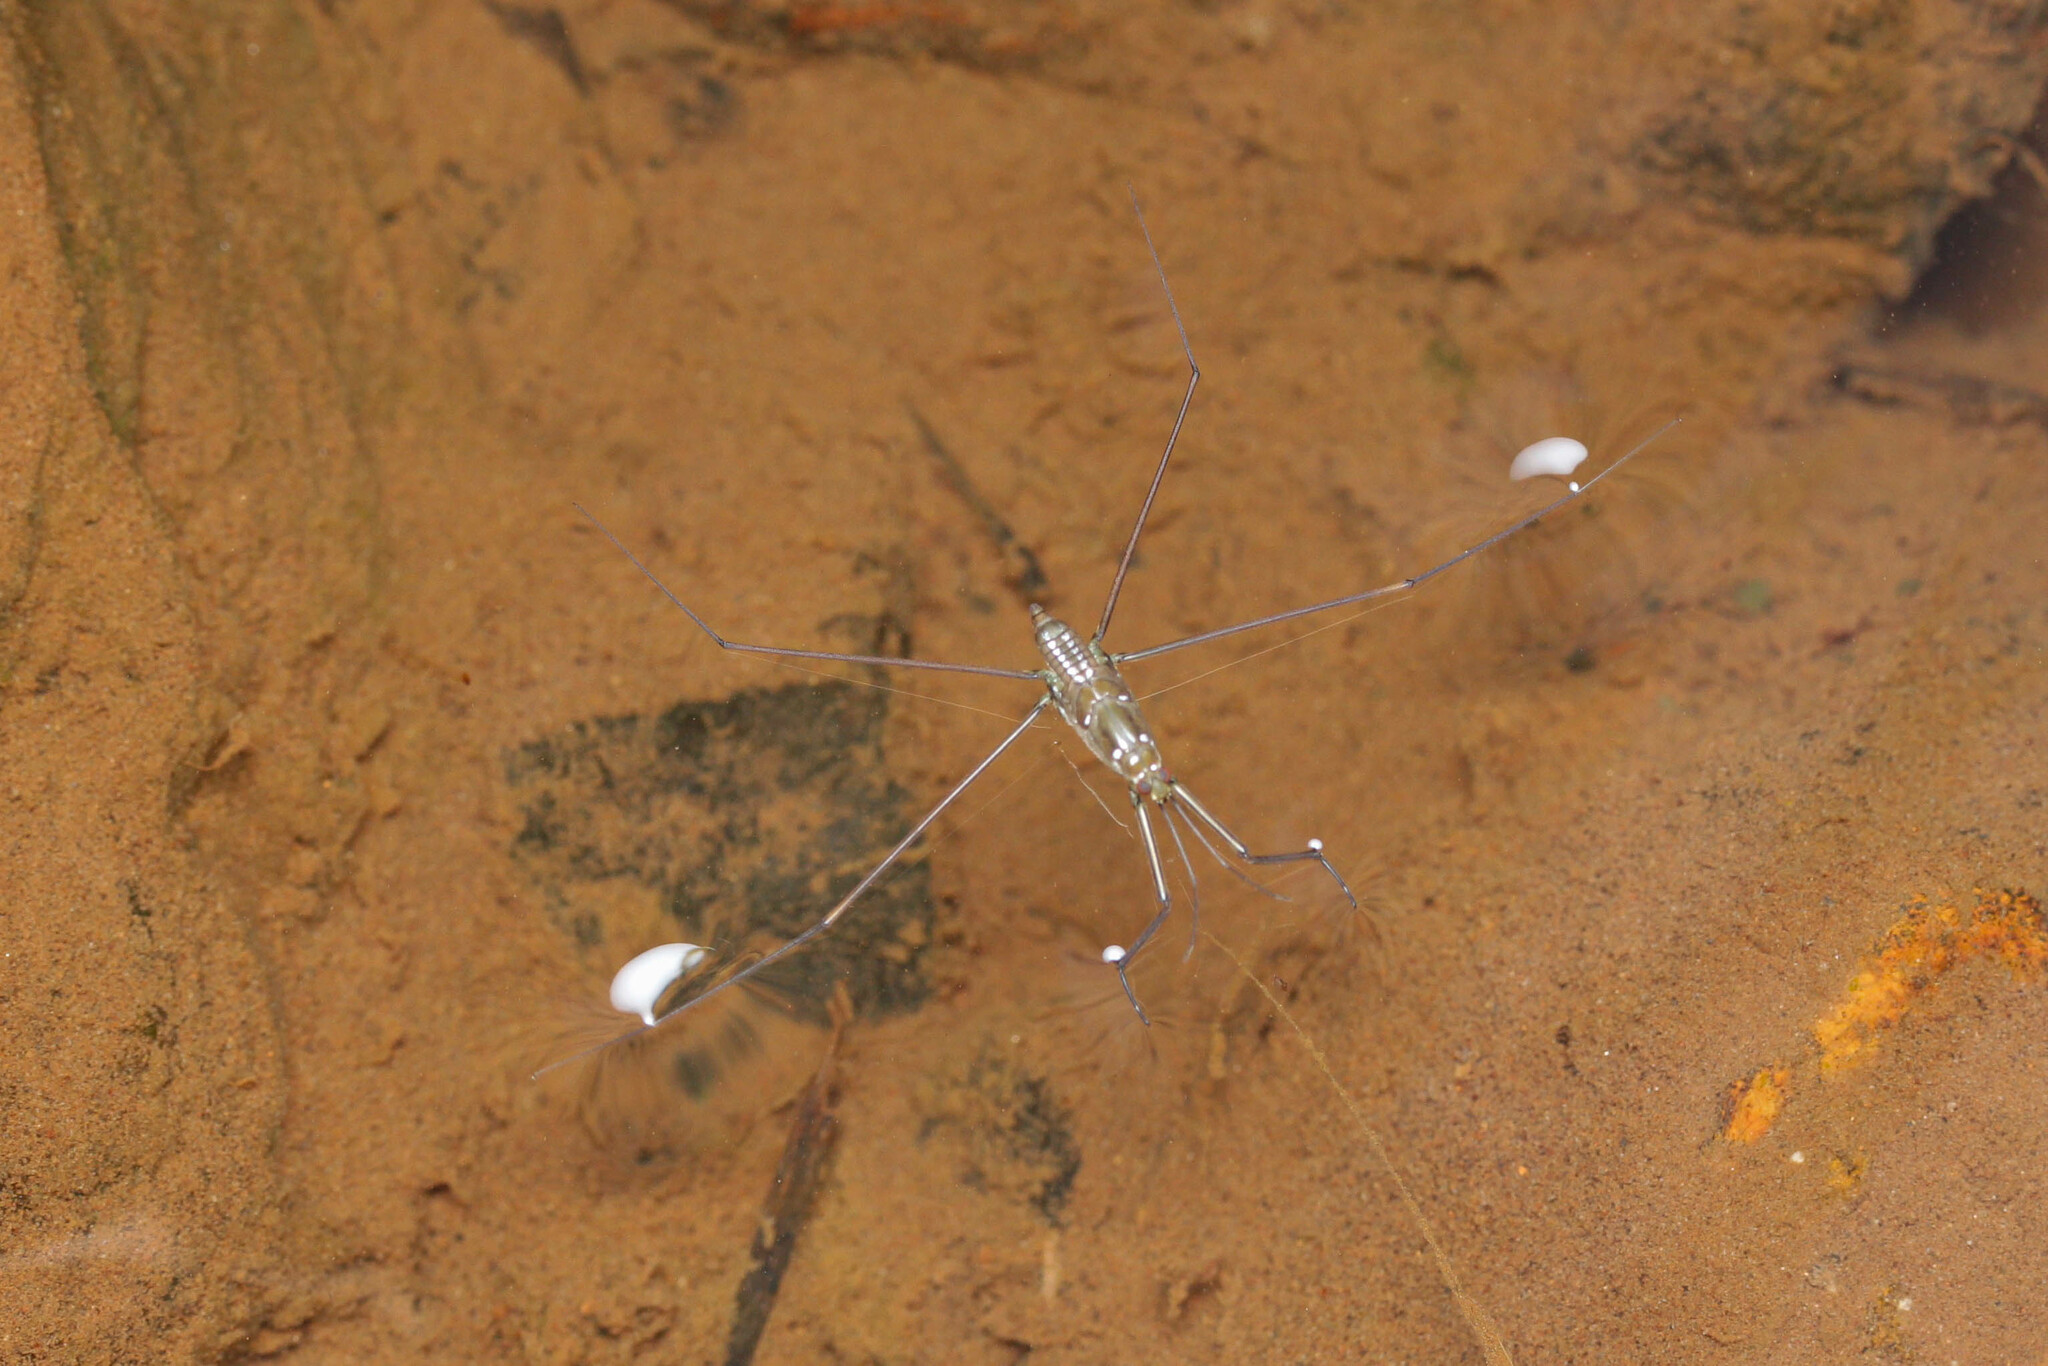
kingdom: Animalia
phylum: Arthropoda
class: Insecta
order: Hemiptera
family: Gerridae
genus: Ptilomera
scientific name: Ptilomera tigrina
